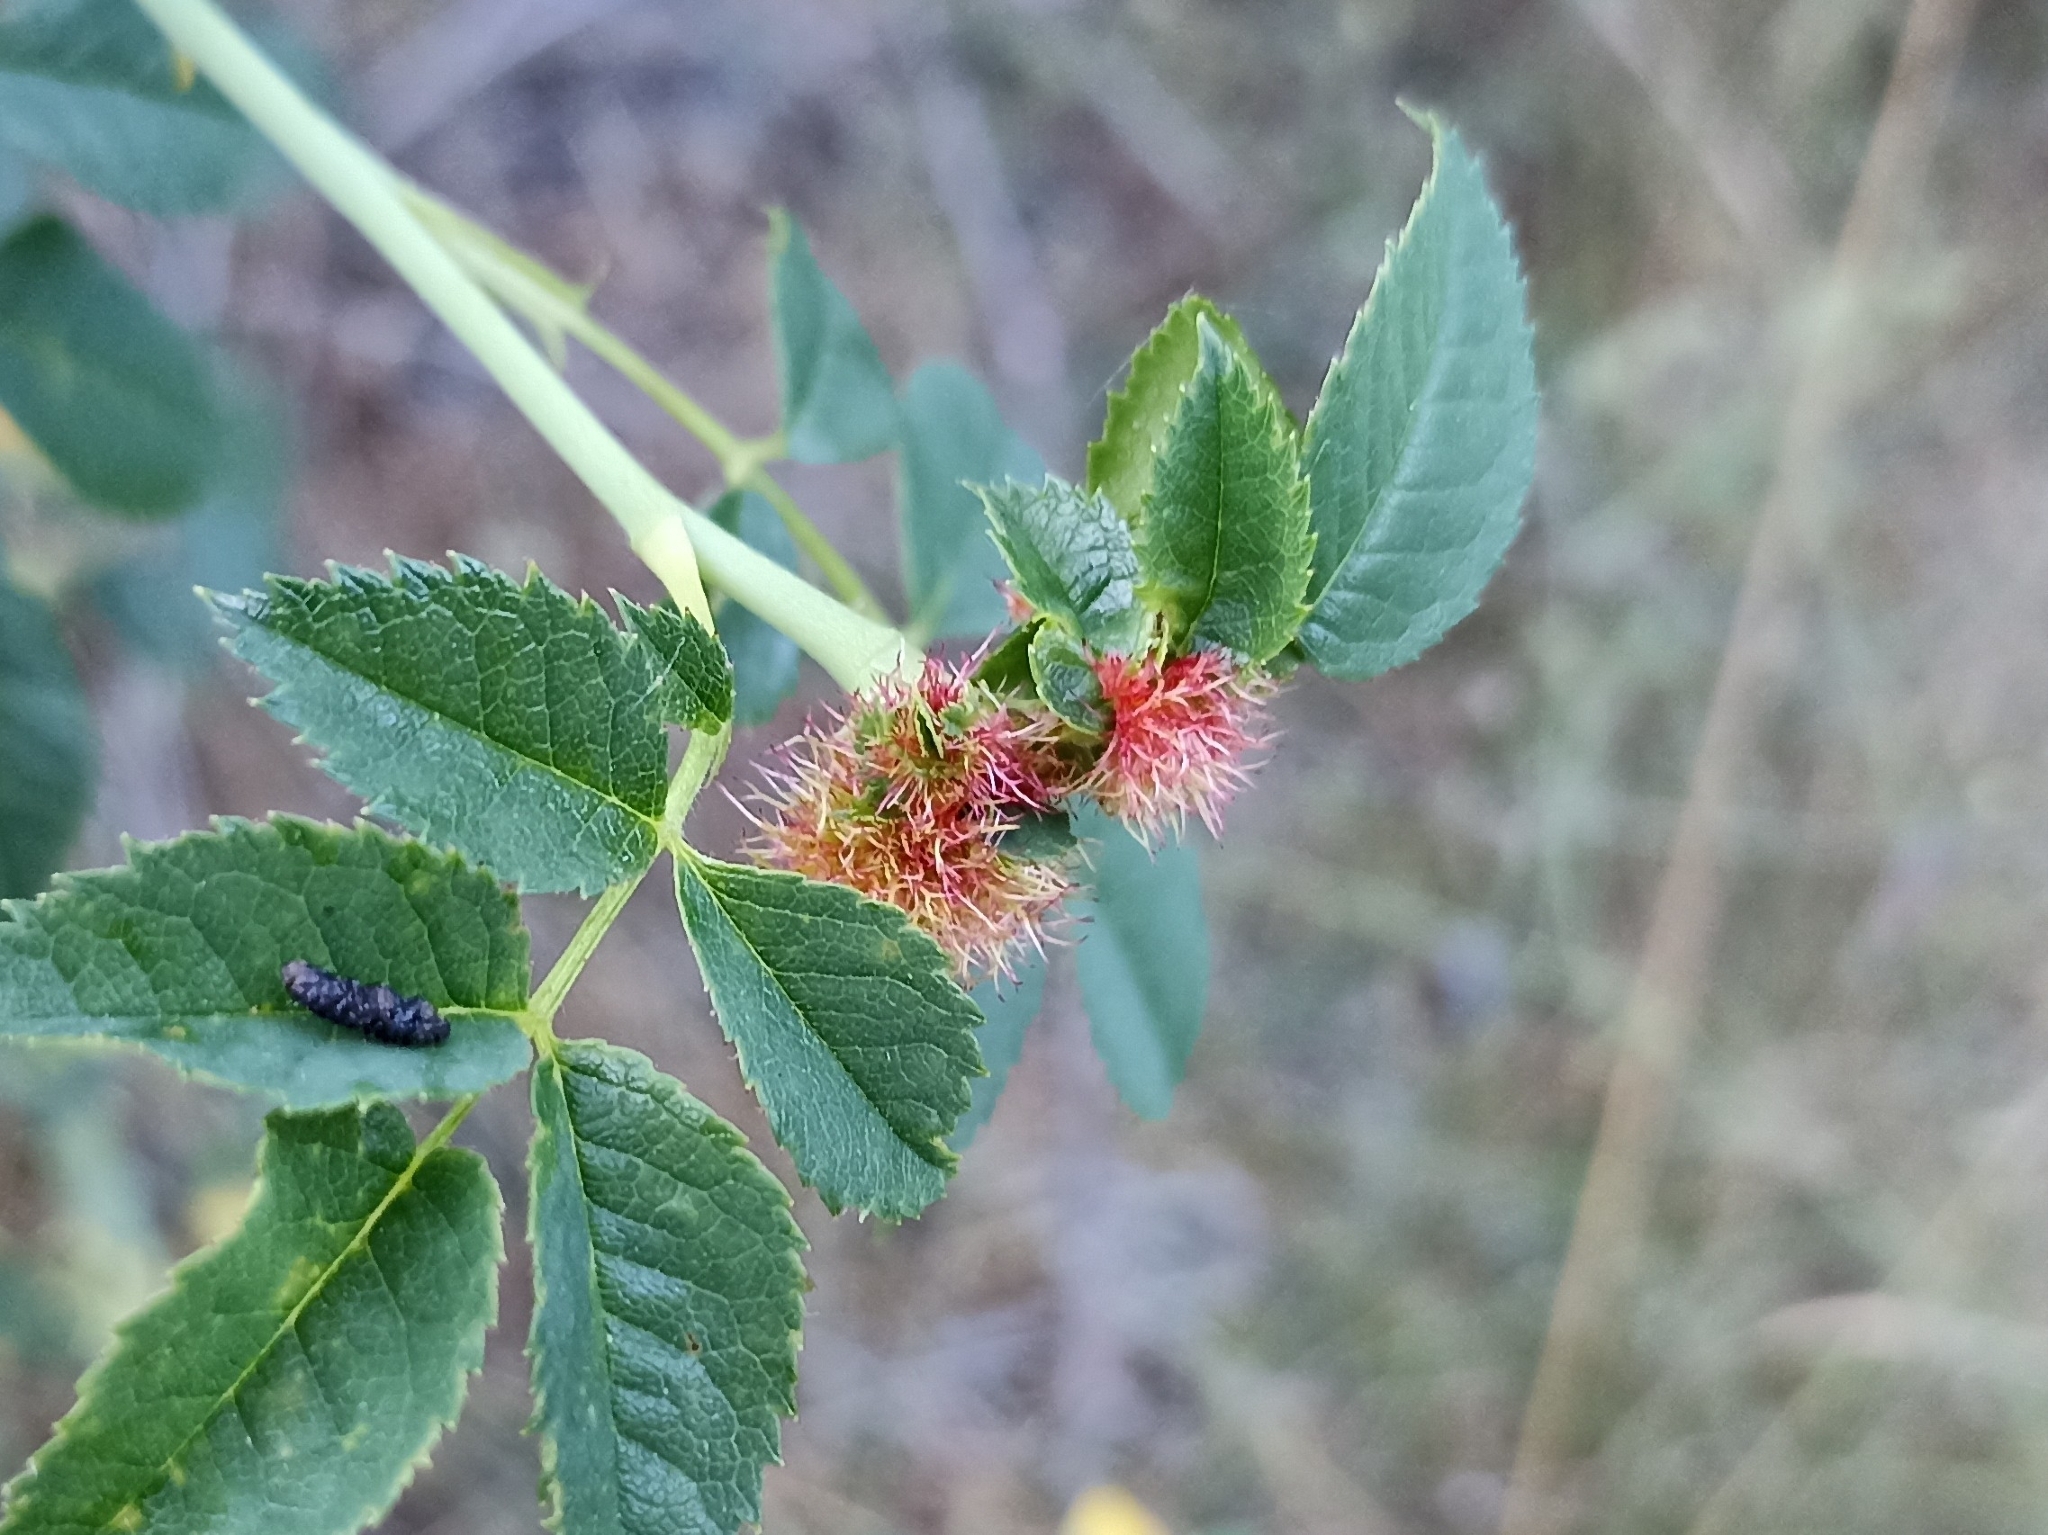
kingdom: Animalia
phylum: Arthropoda
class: Insecta
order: Hymenoptera
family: Cynipidae
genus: Diplolepis
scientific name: Diplolepis rosae
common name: Bedeguar gall
